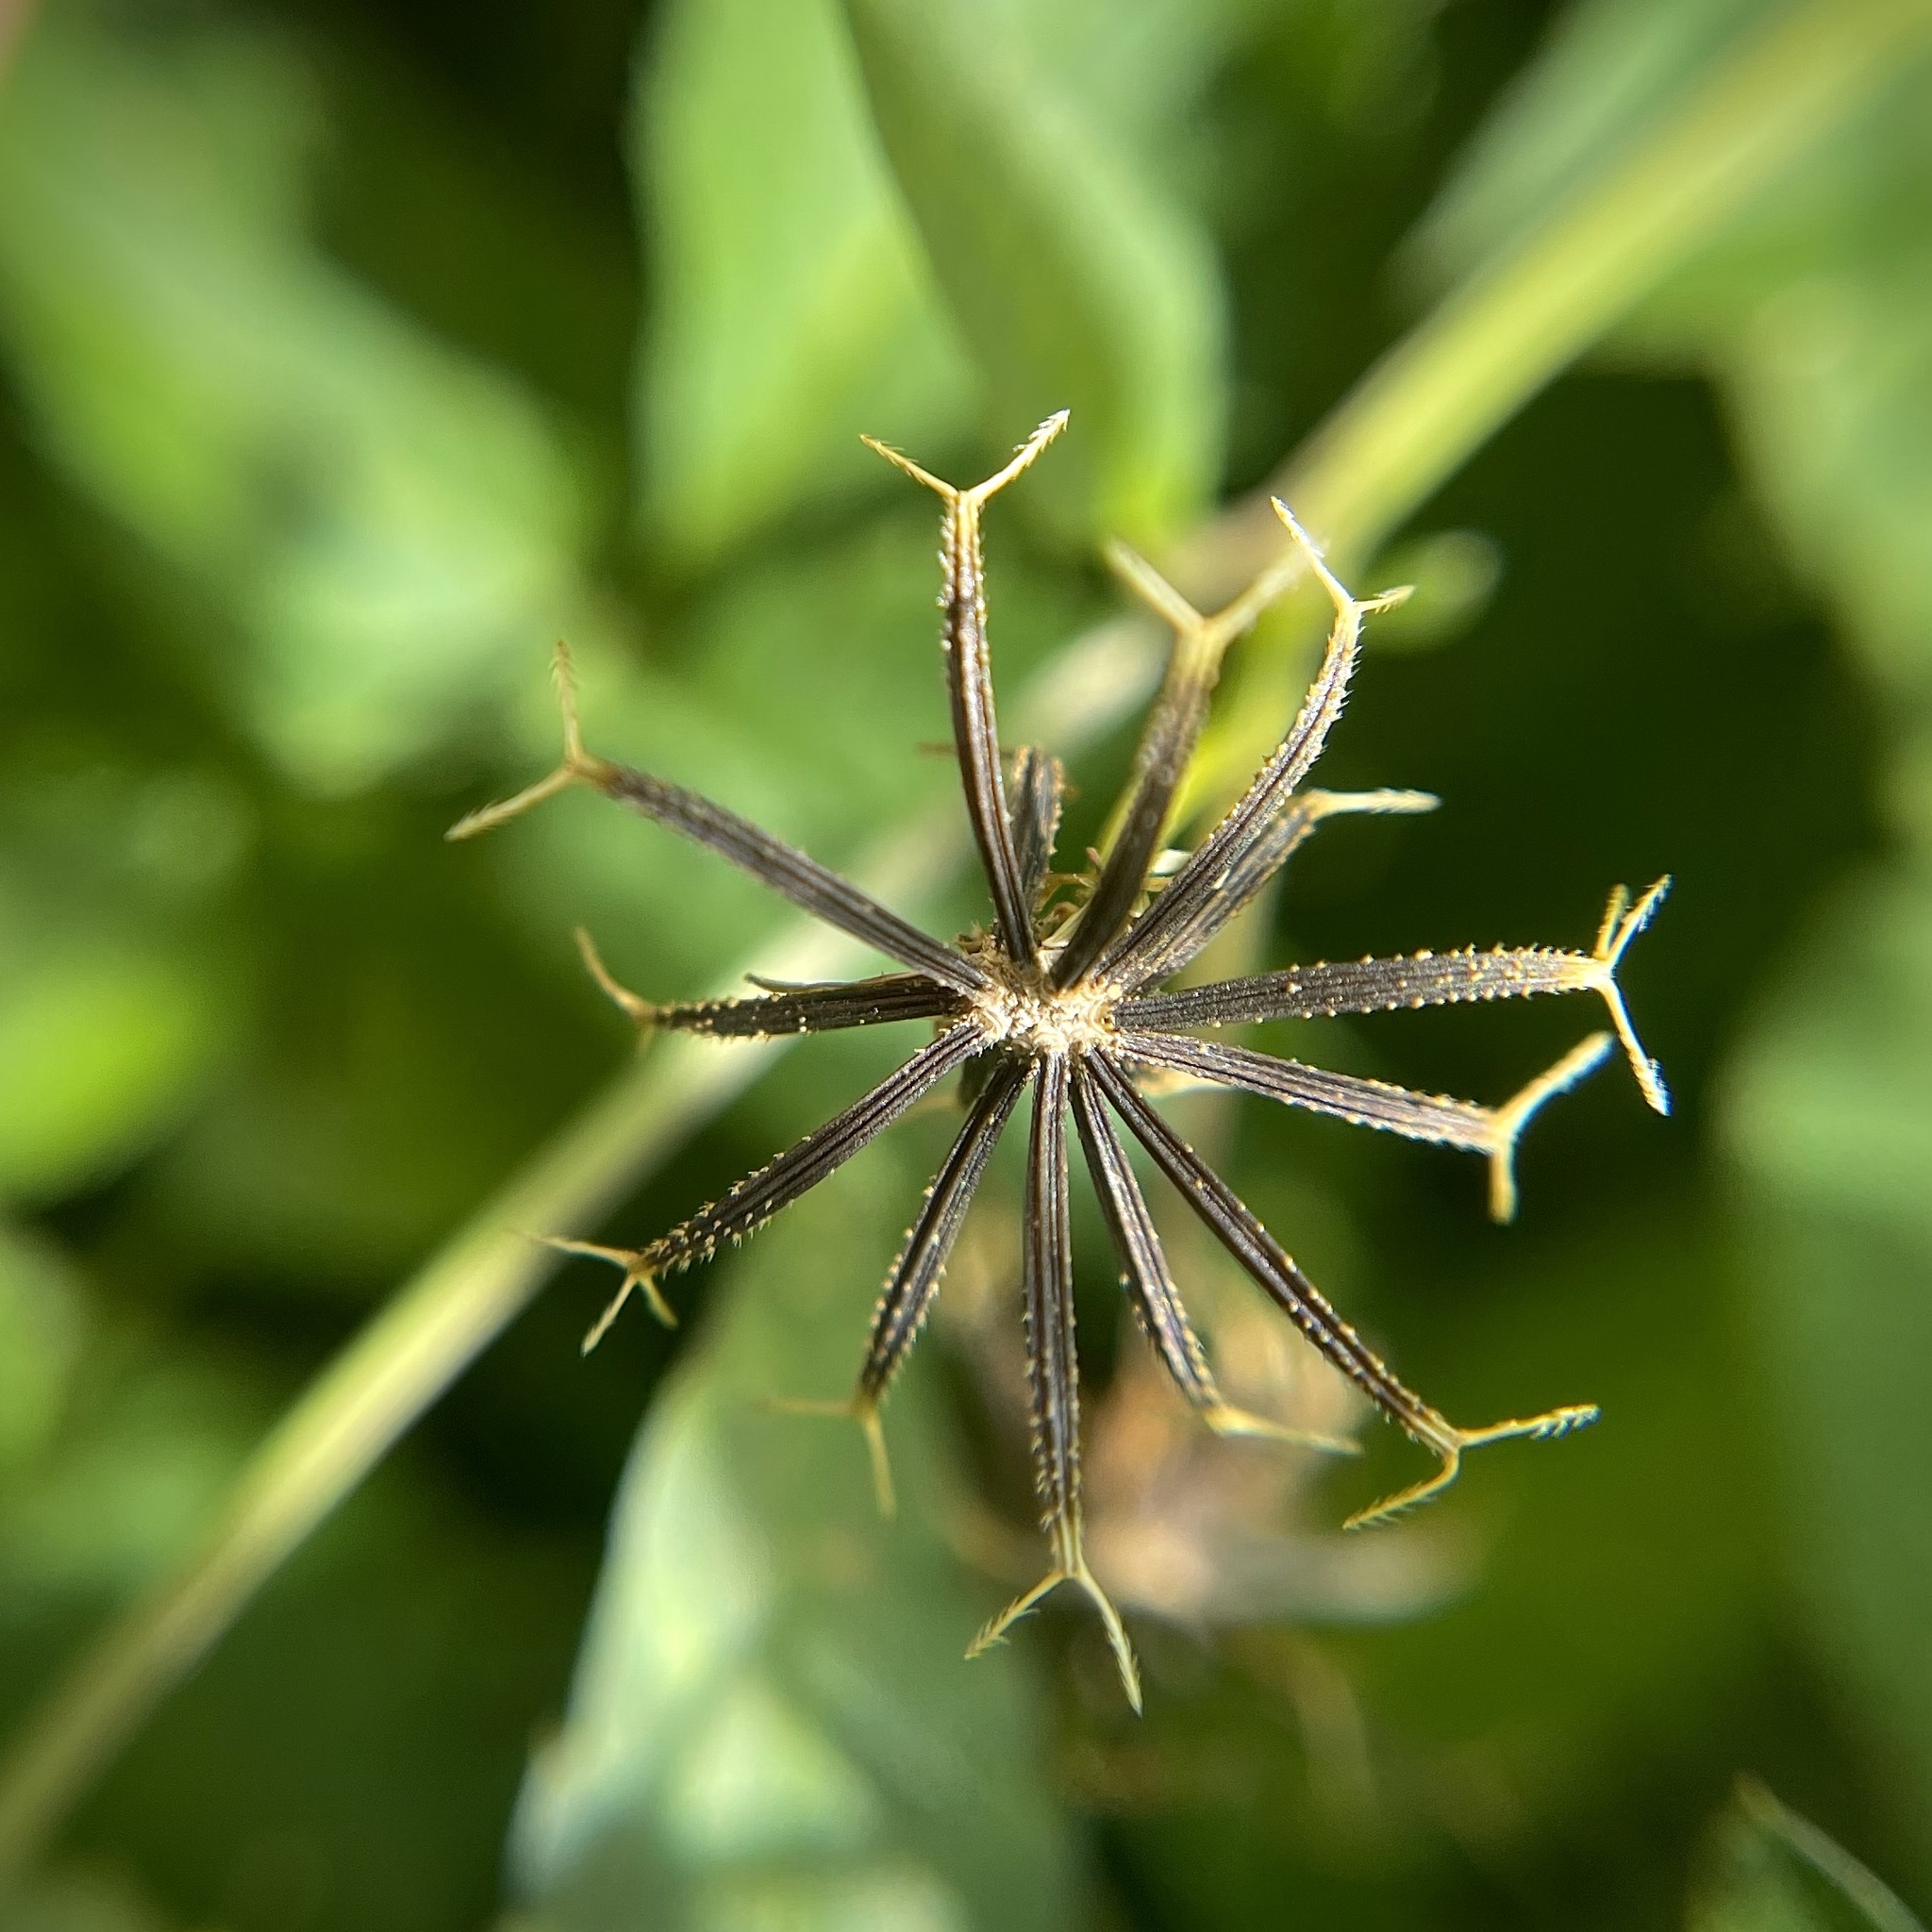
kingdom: Plantae
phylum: Tracheophyta
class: Magnoliopsida
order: Asterales
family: Asteraceae
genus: Bidens
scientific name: Bidens alba
